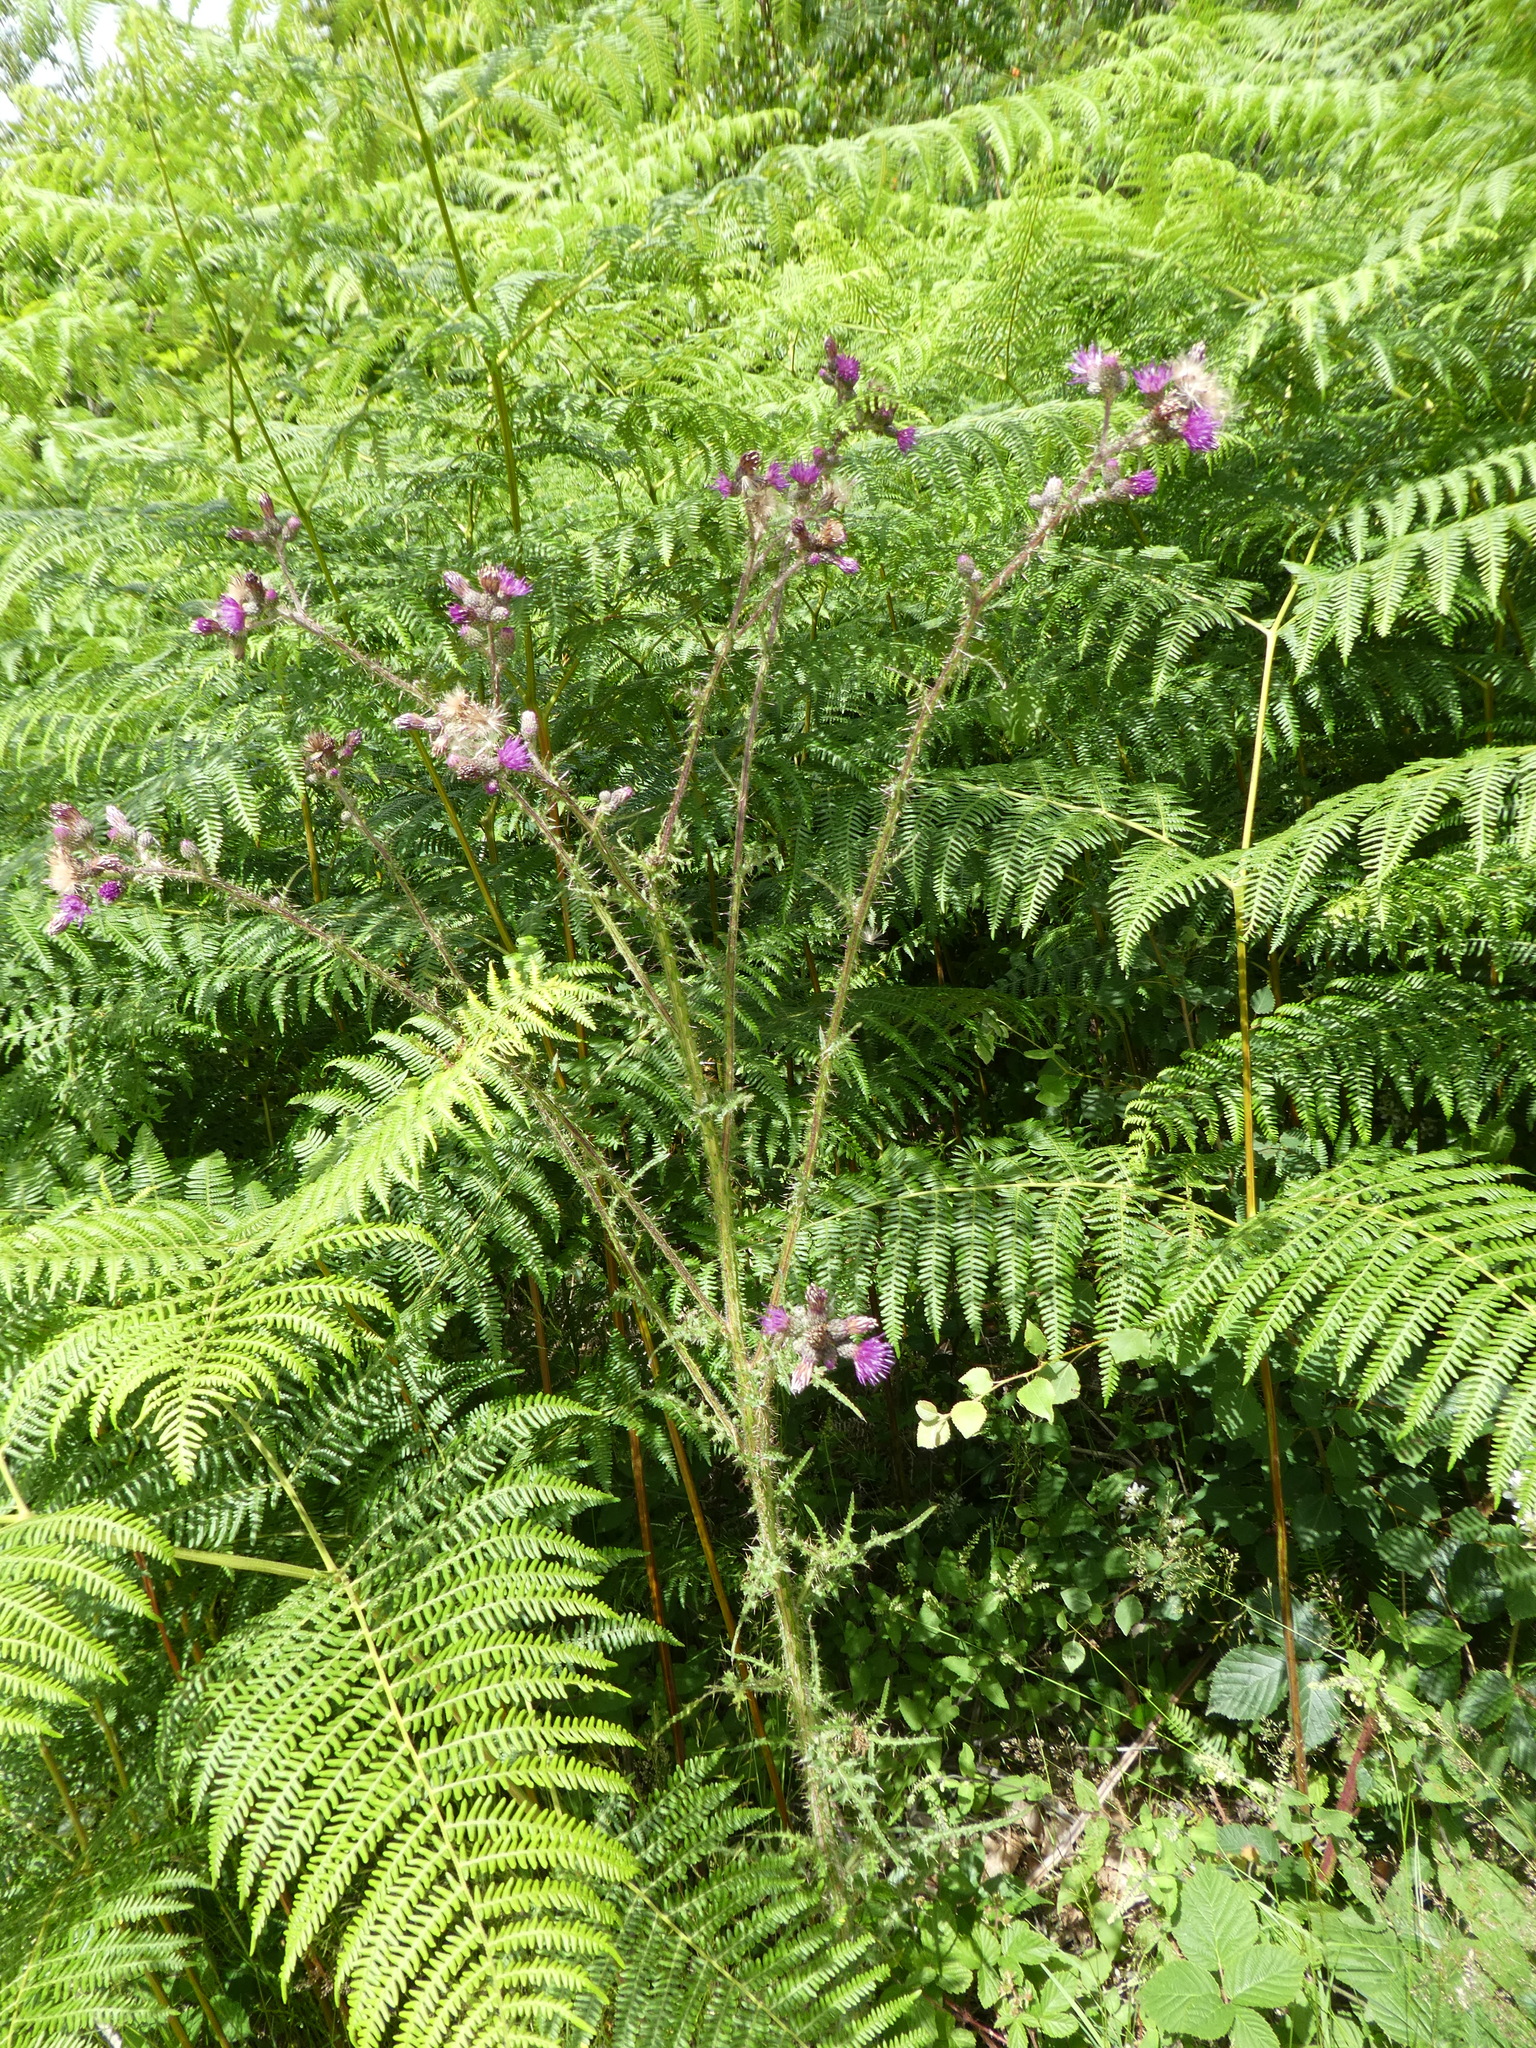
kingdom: Plantae
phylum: Tracheophyta
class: Magnoliopsida
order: Asterales
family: Asteraceae
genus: Cirsium
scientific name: Cirsium palustre
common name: Marsh thistle
